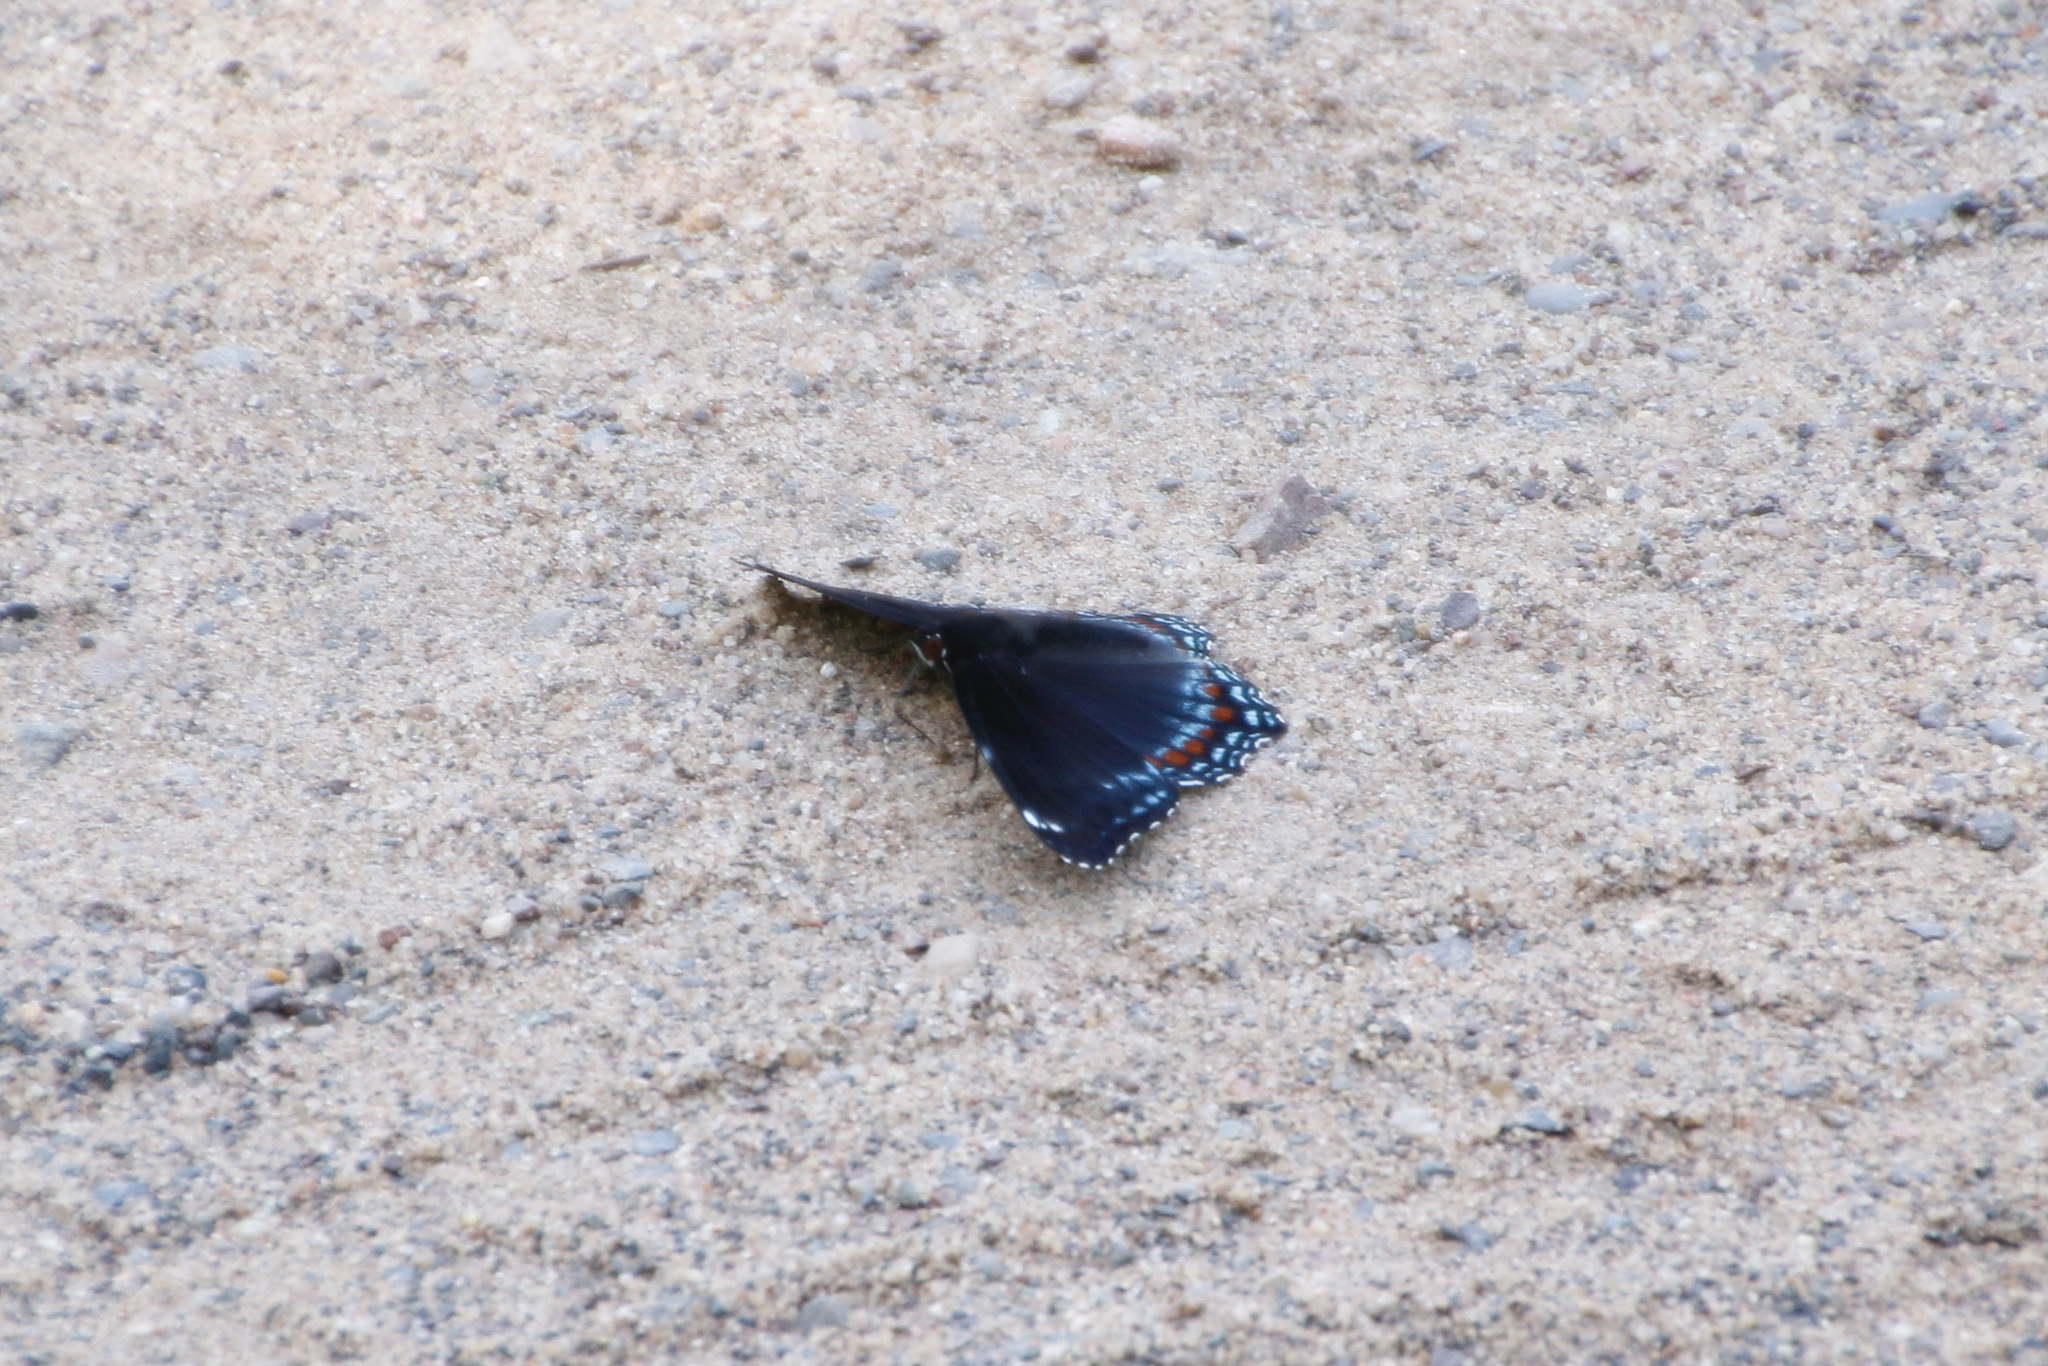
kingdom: Animalia
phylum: Arthropoda
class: Insecta
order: Lepidoptera
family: Nymphalidae
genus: Limenitis
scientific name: Limenitis
